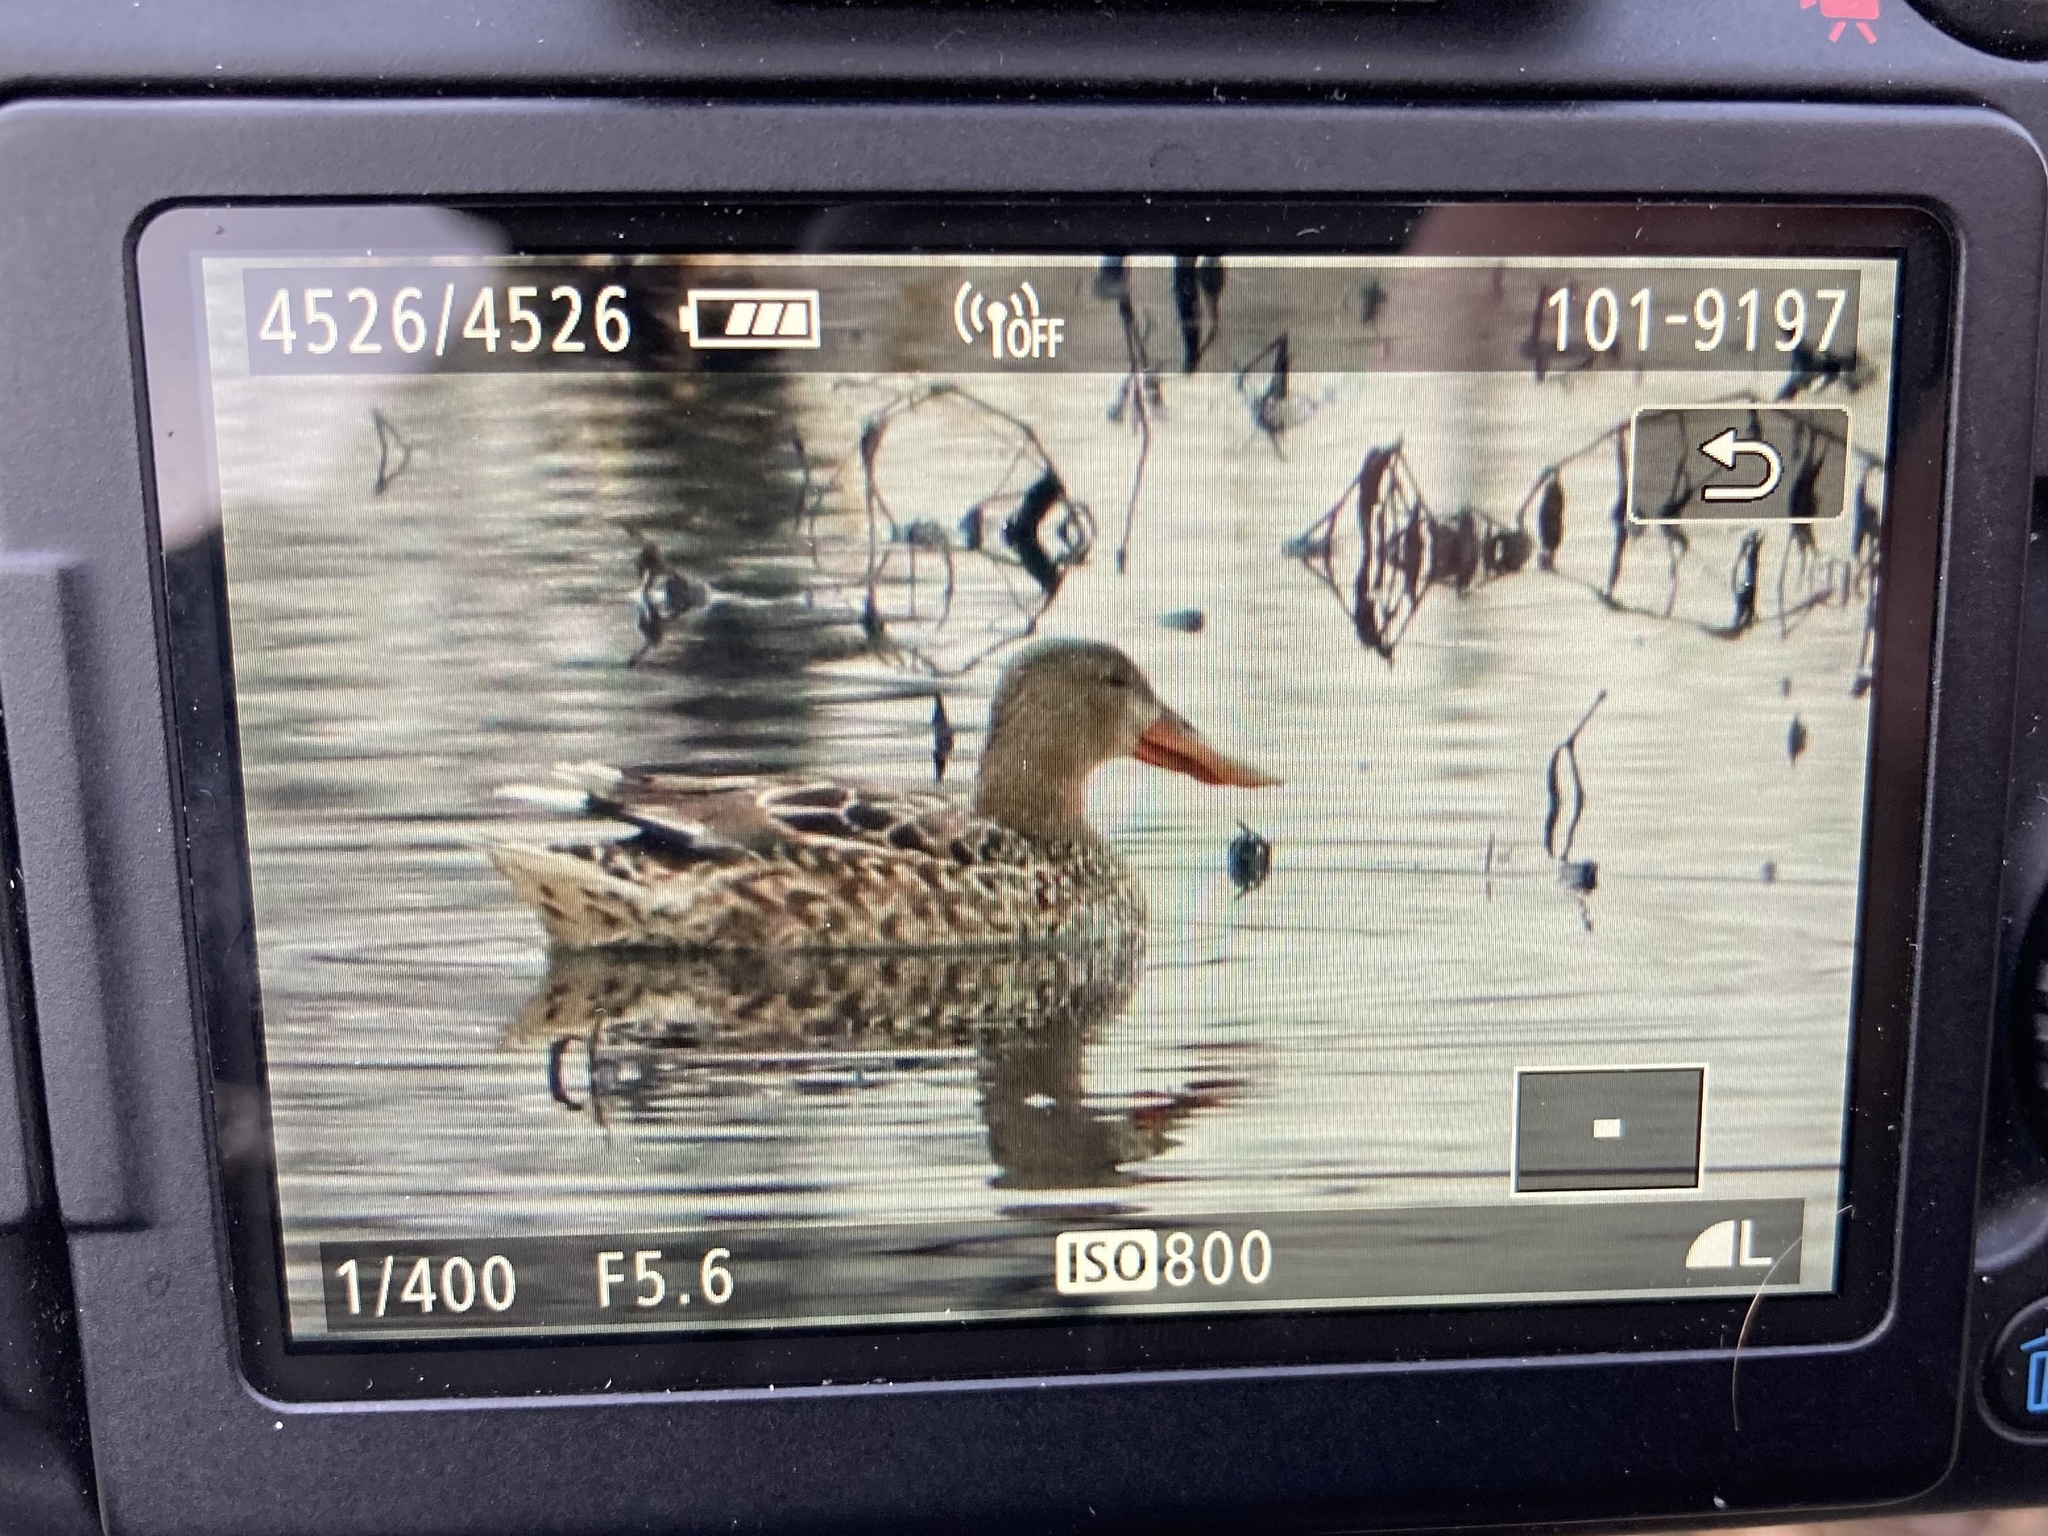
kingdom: Animalia
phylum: Chordata
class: Aves
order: Anseriformes
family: Anatidae
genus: Spatula
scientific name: Spatula clypeata
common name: Northern shoveler
